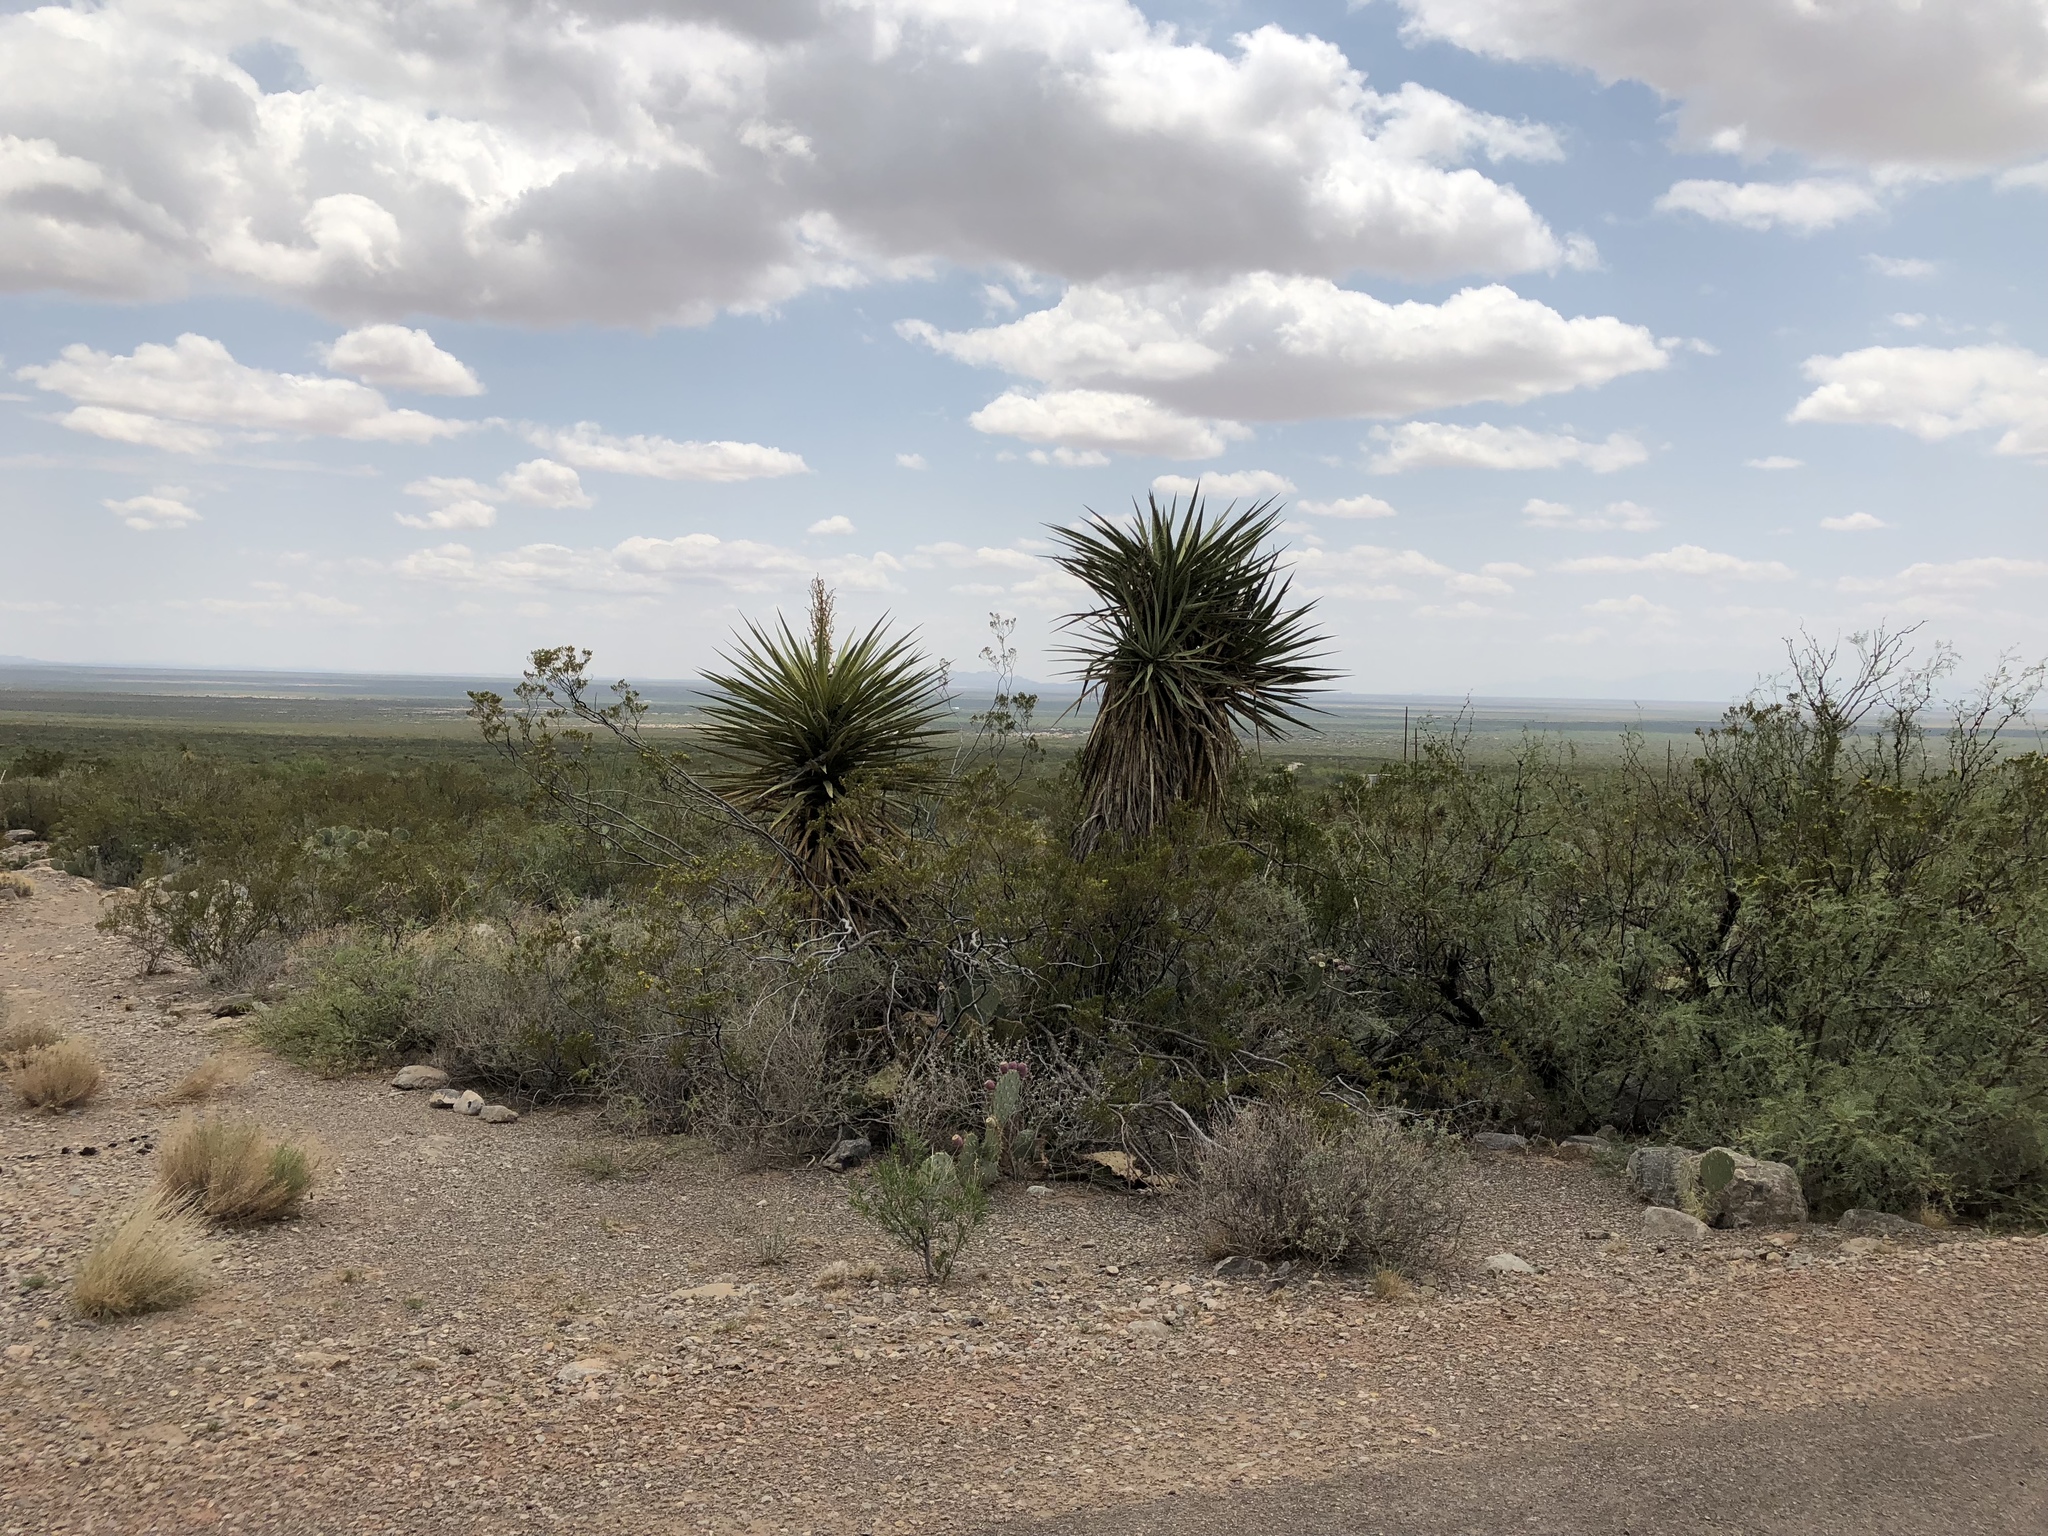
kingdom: Plantae
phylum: Tracheophyta
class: Liliopsida
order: Asparagales
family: Asparagaceae
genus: Yucca
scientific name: Yucca treculiana
